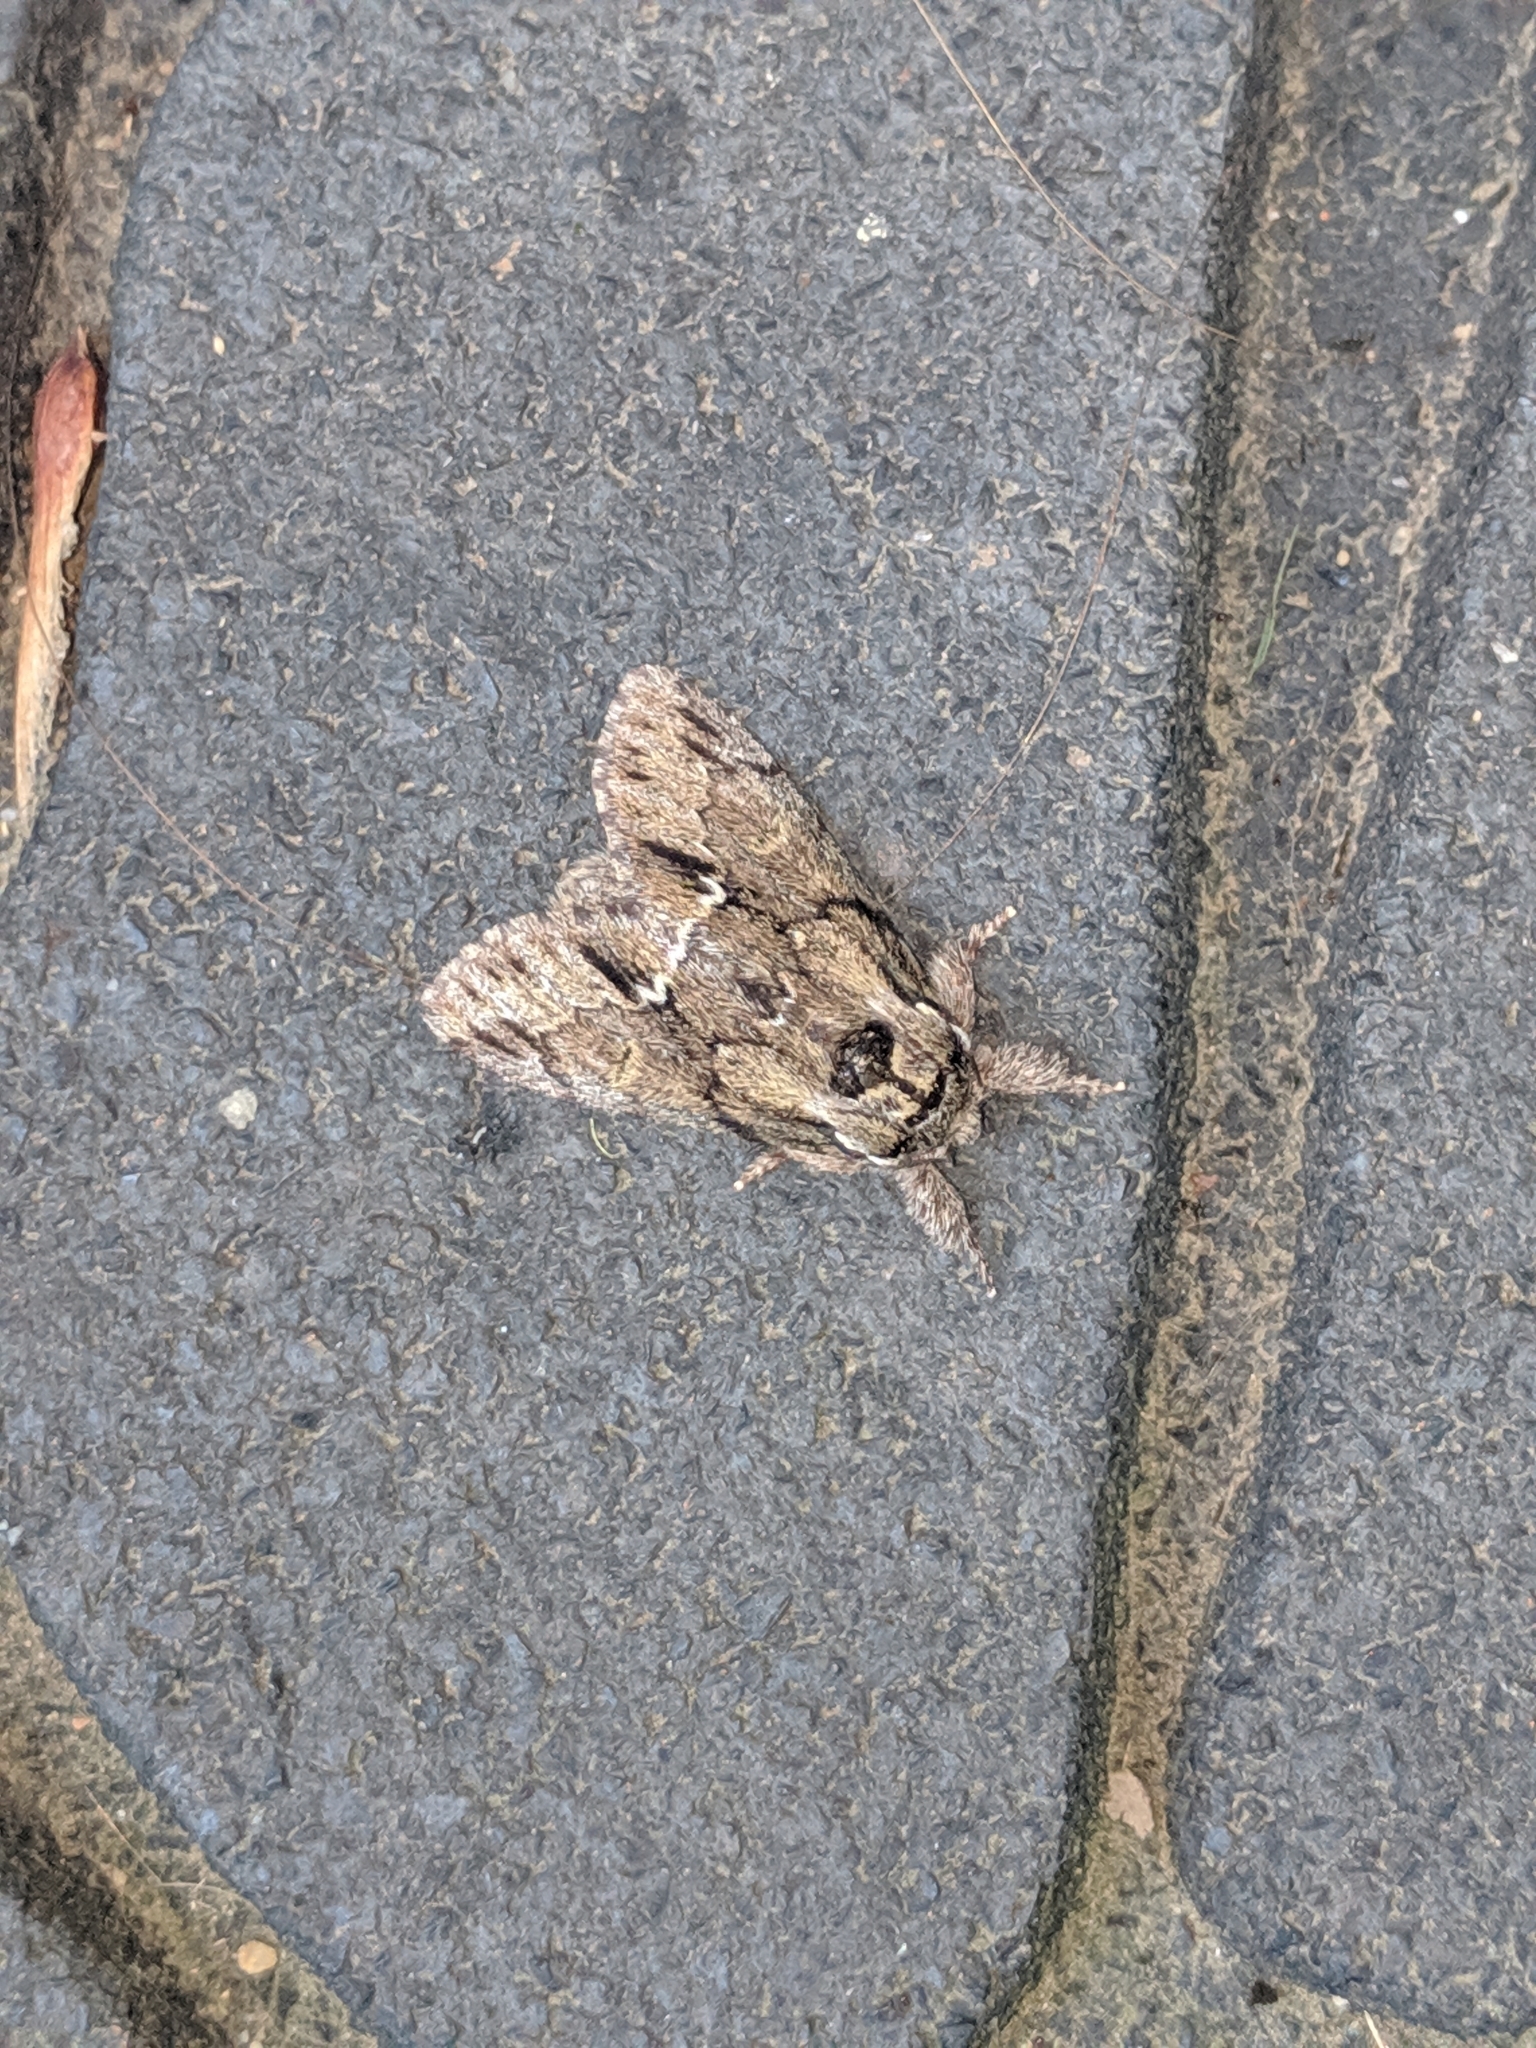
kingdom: Animalia
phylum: Arthropoda
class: Insecta
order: Lepidoptera
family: Notodontidae
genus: Paraeschra
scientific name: Paraeschra georgica
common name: Georgian prominent
